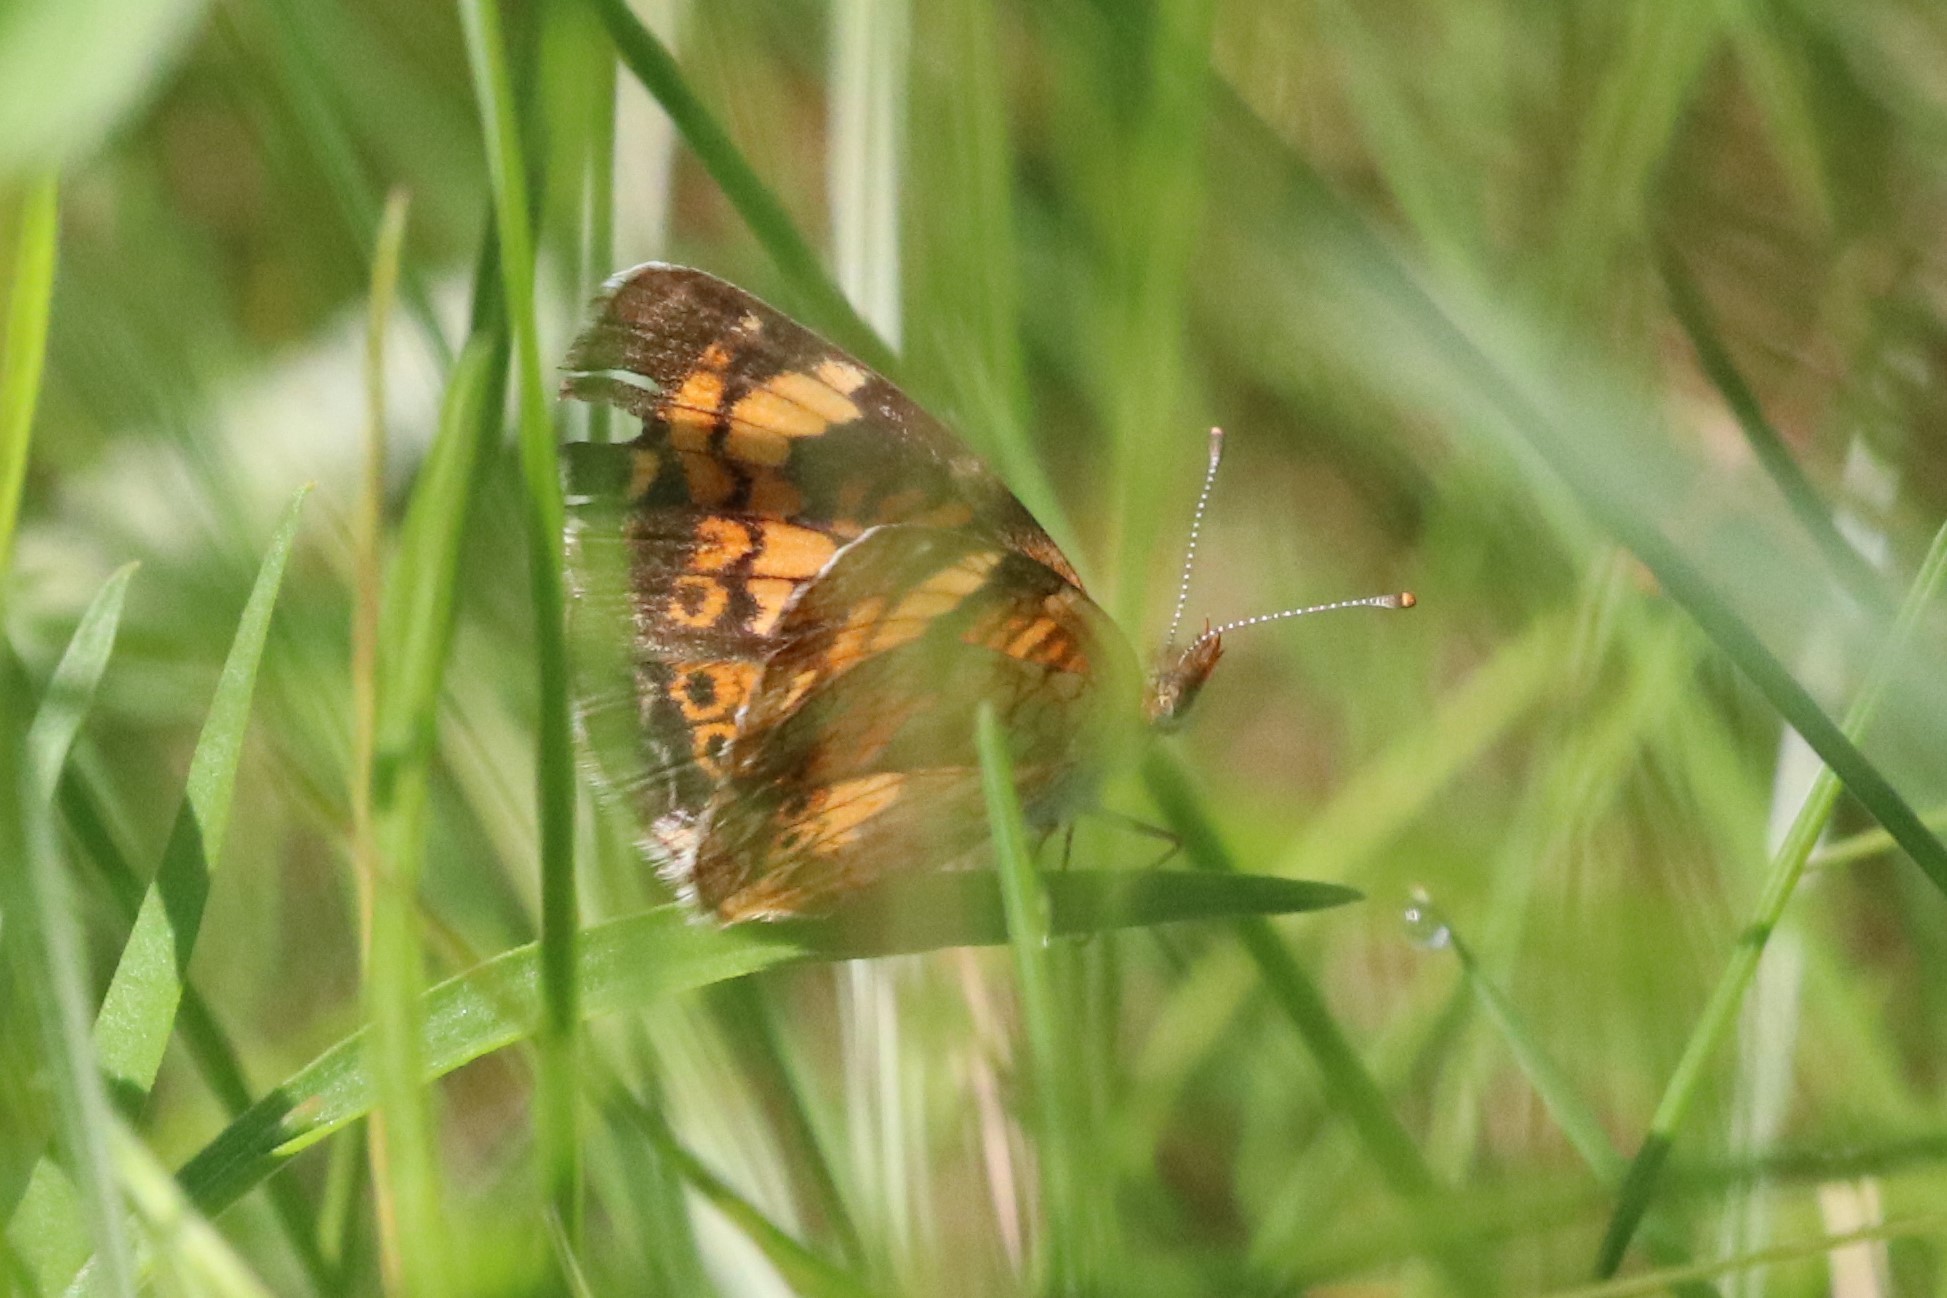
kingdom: Animalia
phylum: Arthropoda
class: Insecta
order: Lepidoptera
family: Nymphalidae
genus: Phyciodes
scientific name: Phyciodes tharos
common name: Pearl crescent
